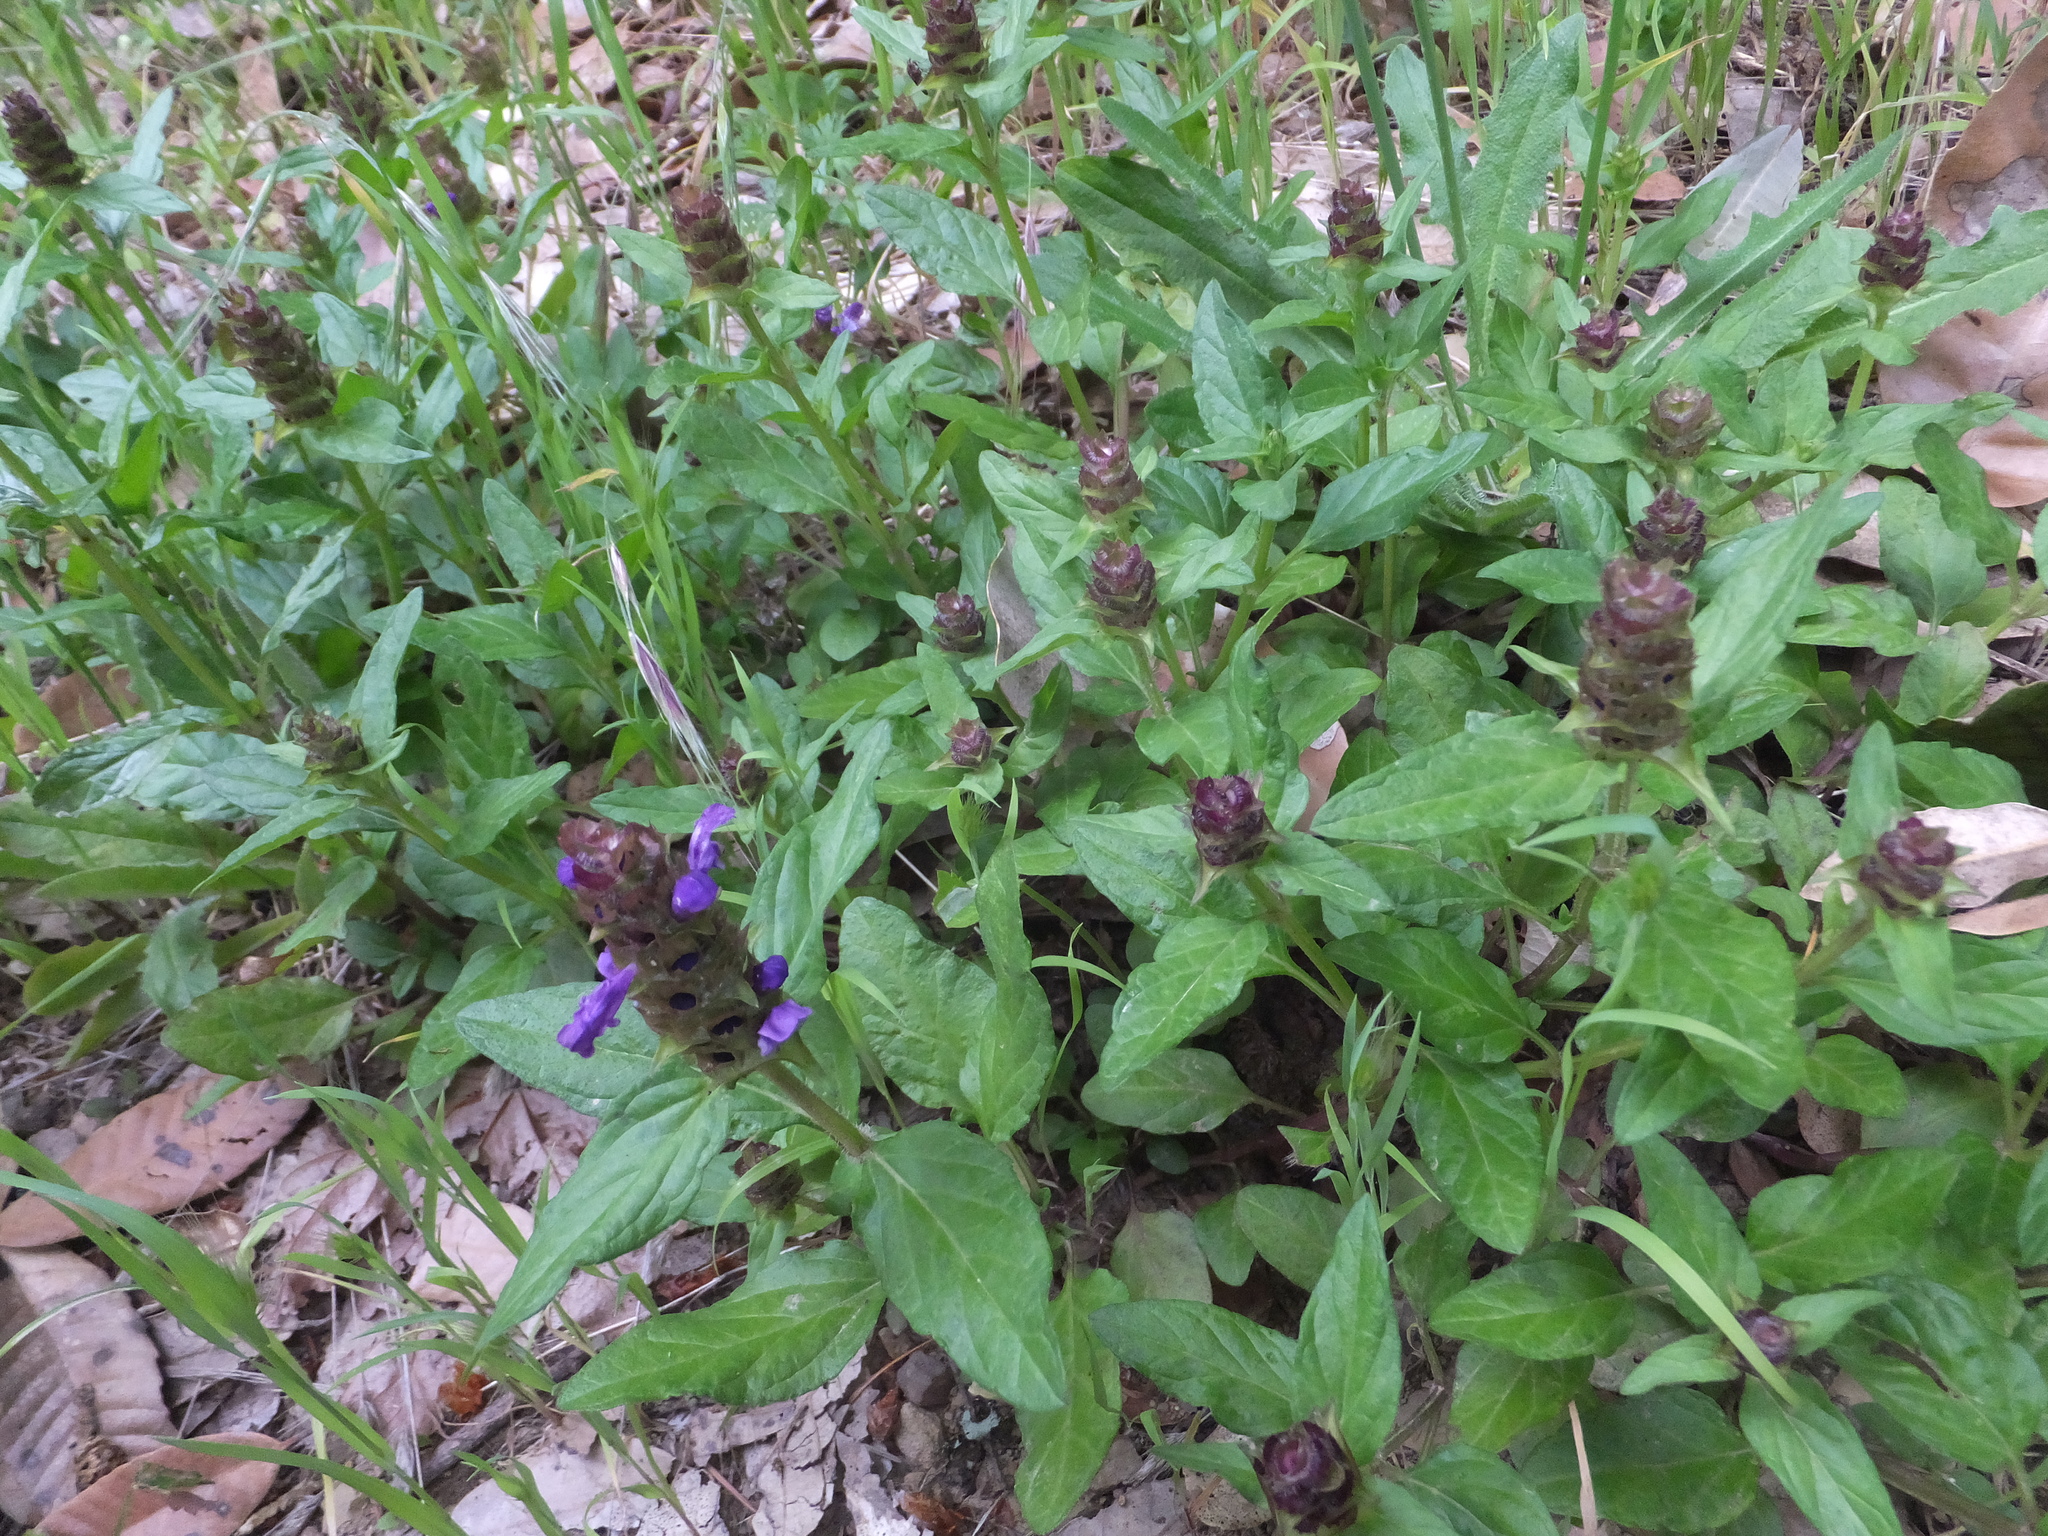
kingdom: Plantae
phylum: Tracheophyta
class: Magnoliopsida
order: Lamiales
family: Lamiaceae
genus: Prunella
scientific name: Prunella vulgaris
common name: Heal-all
